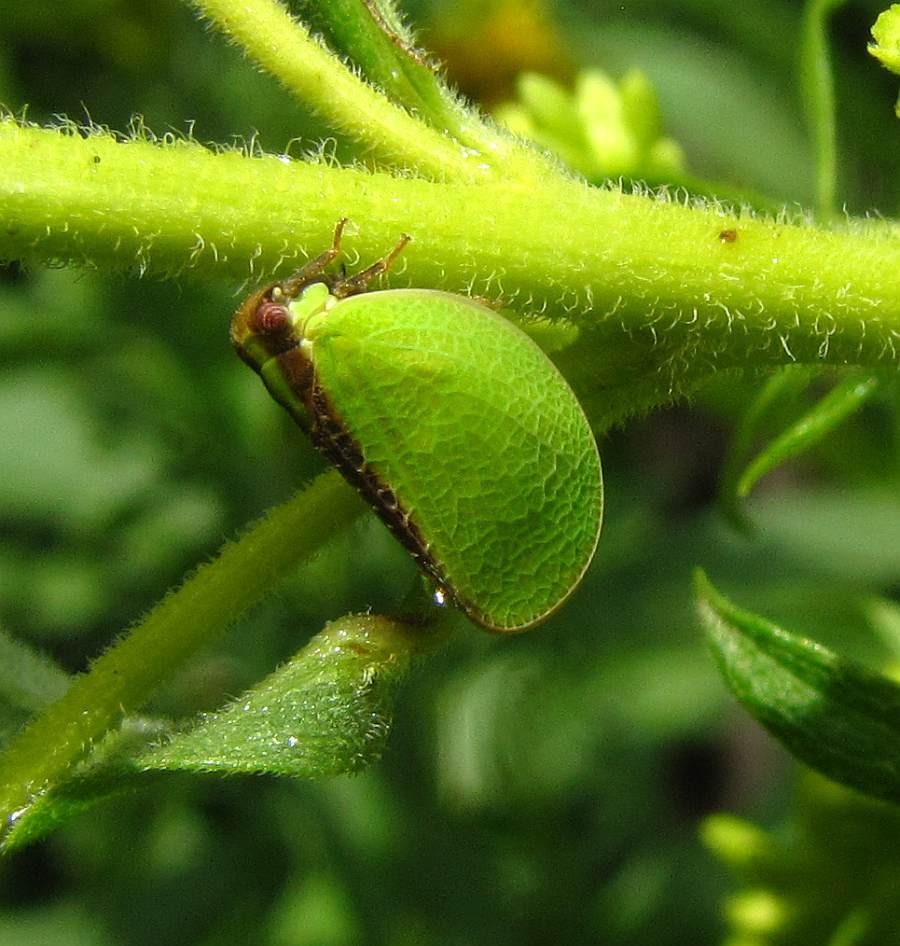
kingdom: Animalia
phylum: Arthropoda
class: Insecta
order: Hemiptera
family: Acanaloniidae
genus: Acanalonia
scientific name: Acanalonia bivittata
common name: Two-striped planthopper
